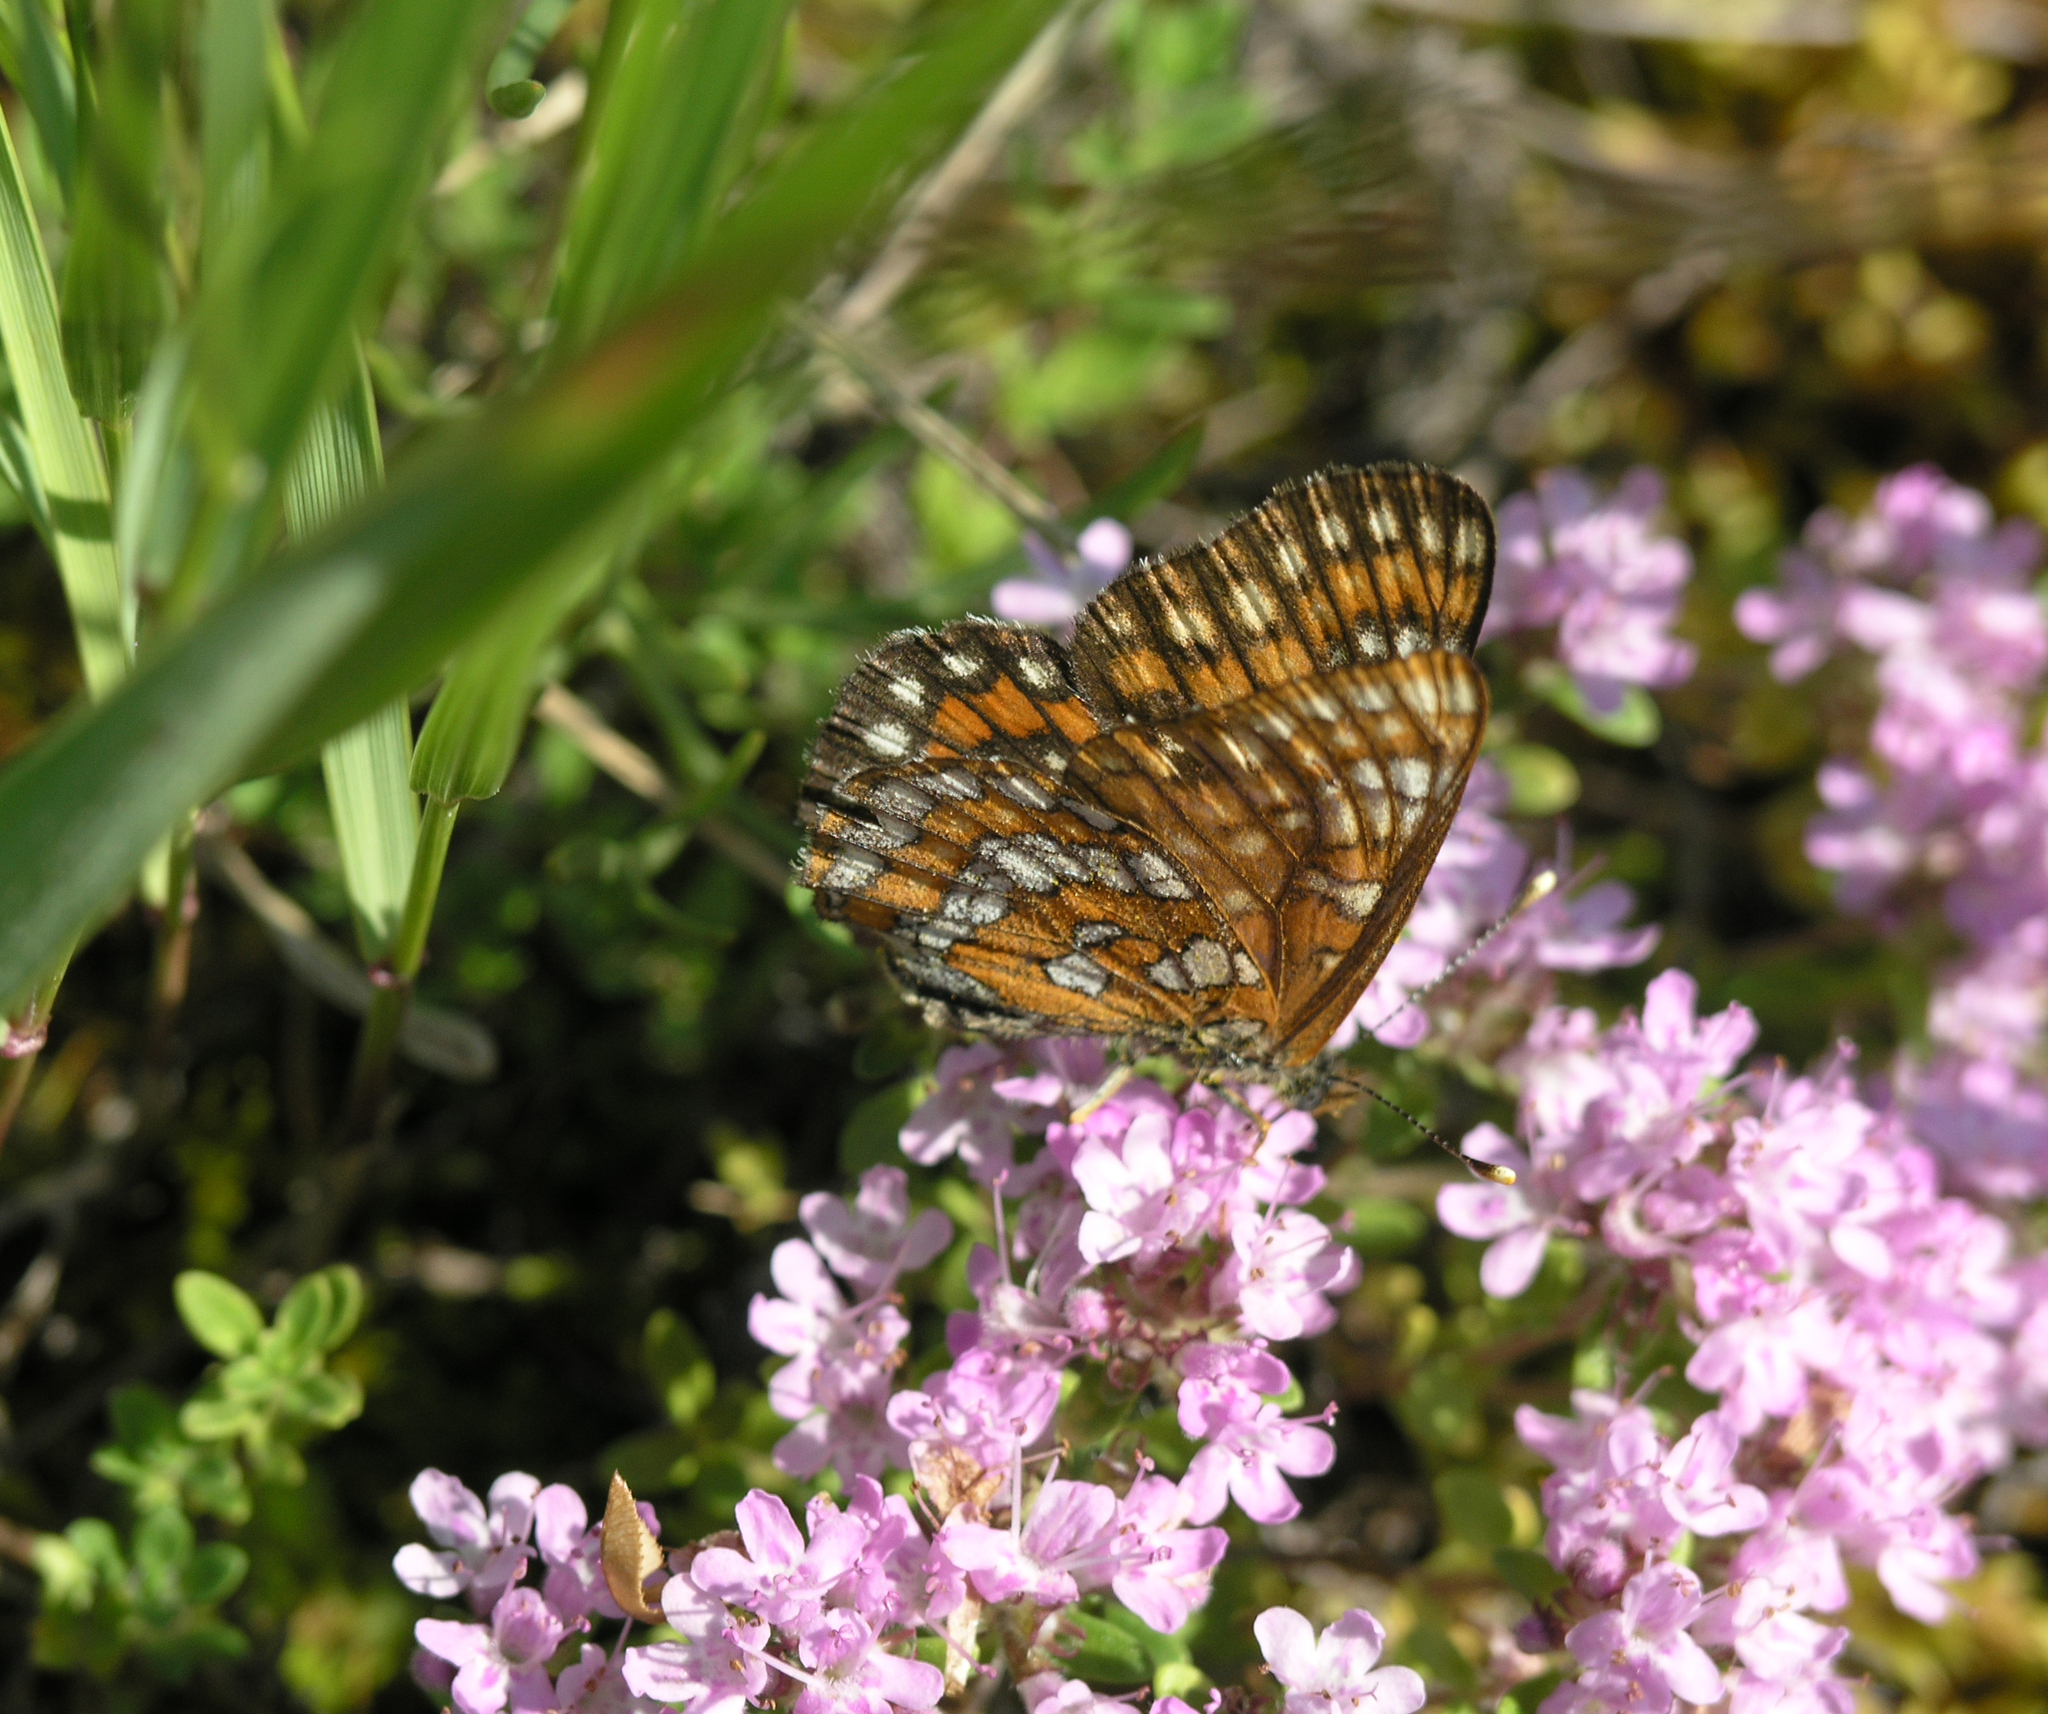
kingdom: Animalia
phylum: Arthropoda
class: Insecta
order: Lepidoptera
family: Nymphalidae
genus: Euphydryas
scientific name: Euphydryas maturna
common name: Scarce fritillary
